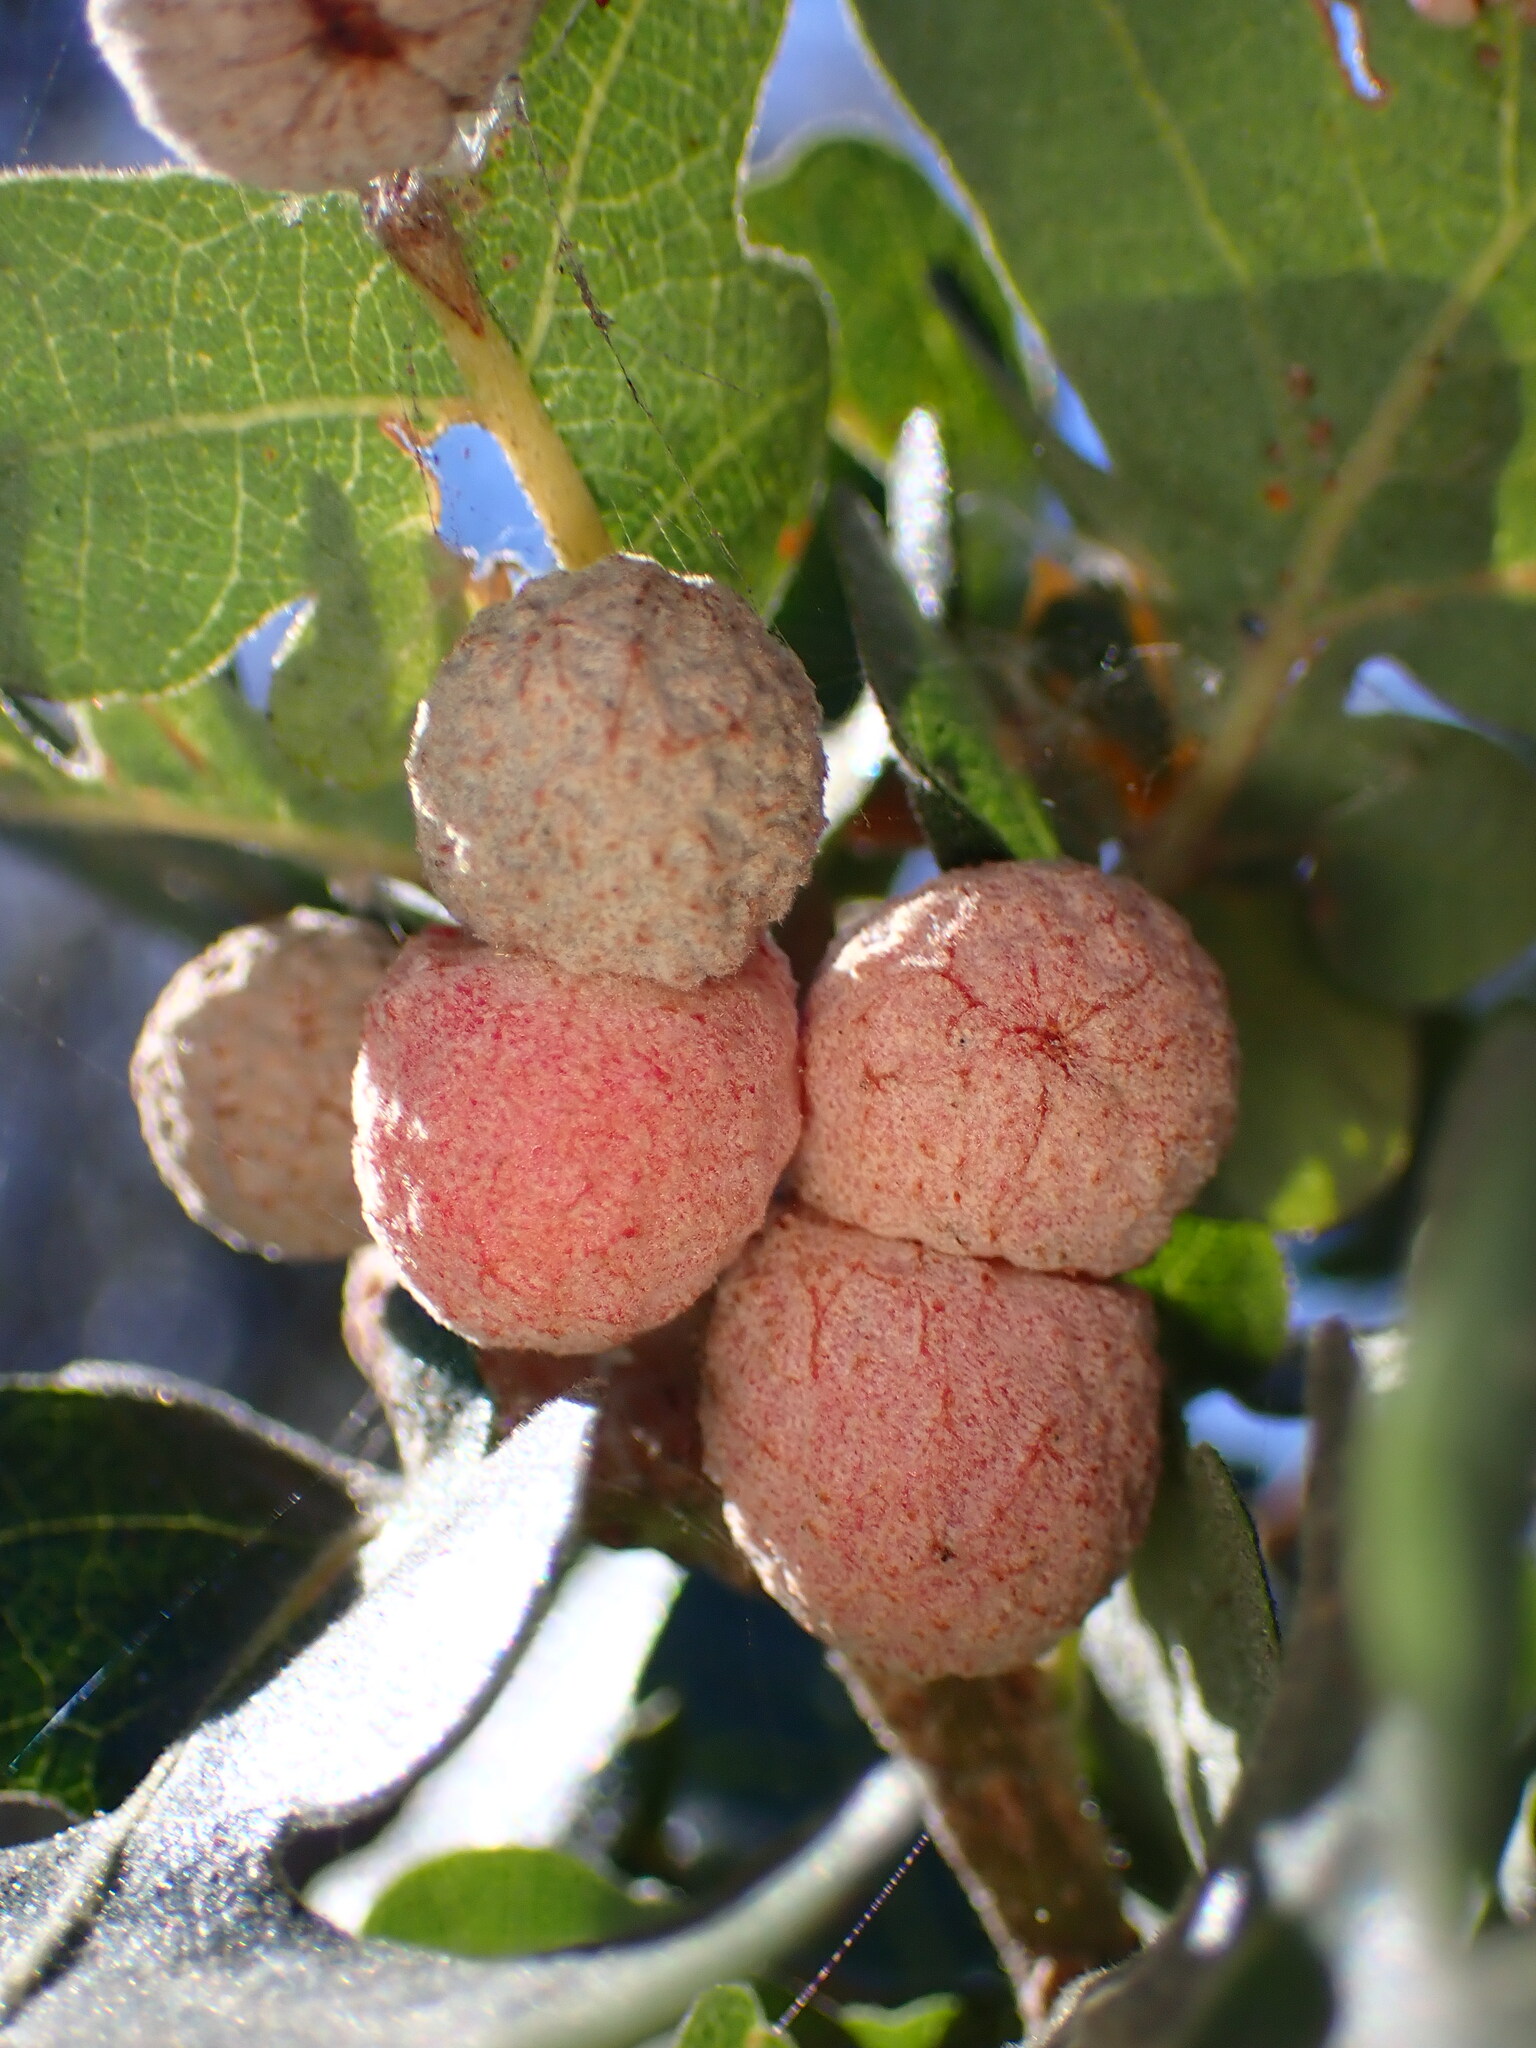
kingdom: Animalia
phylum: Arthropoda
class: Insecta
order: Hymenoptera
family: Cynipidae
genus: Cynips
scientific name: Cynips conspicua
